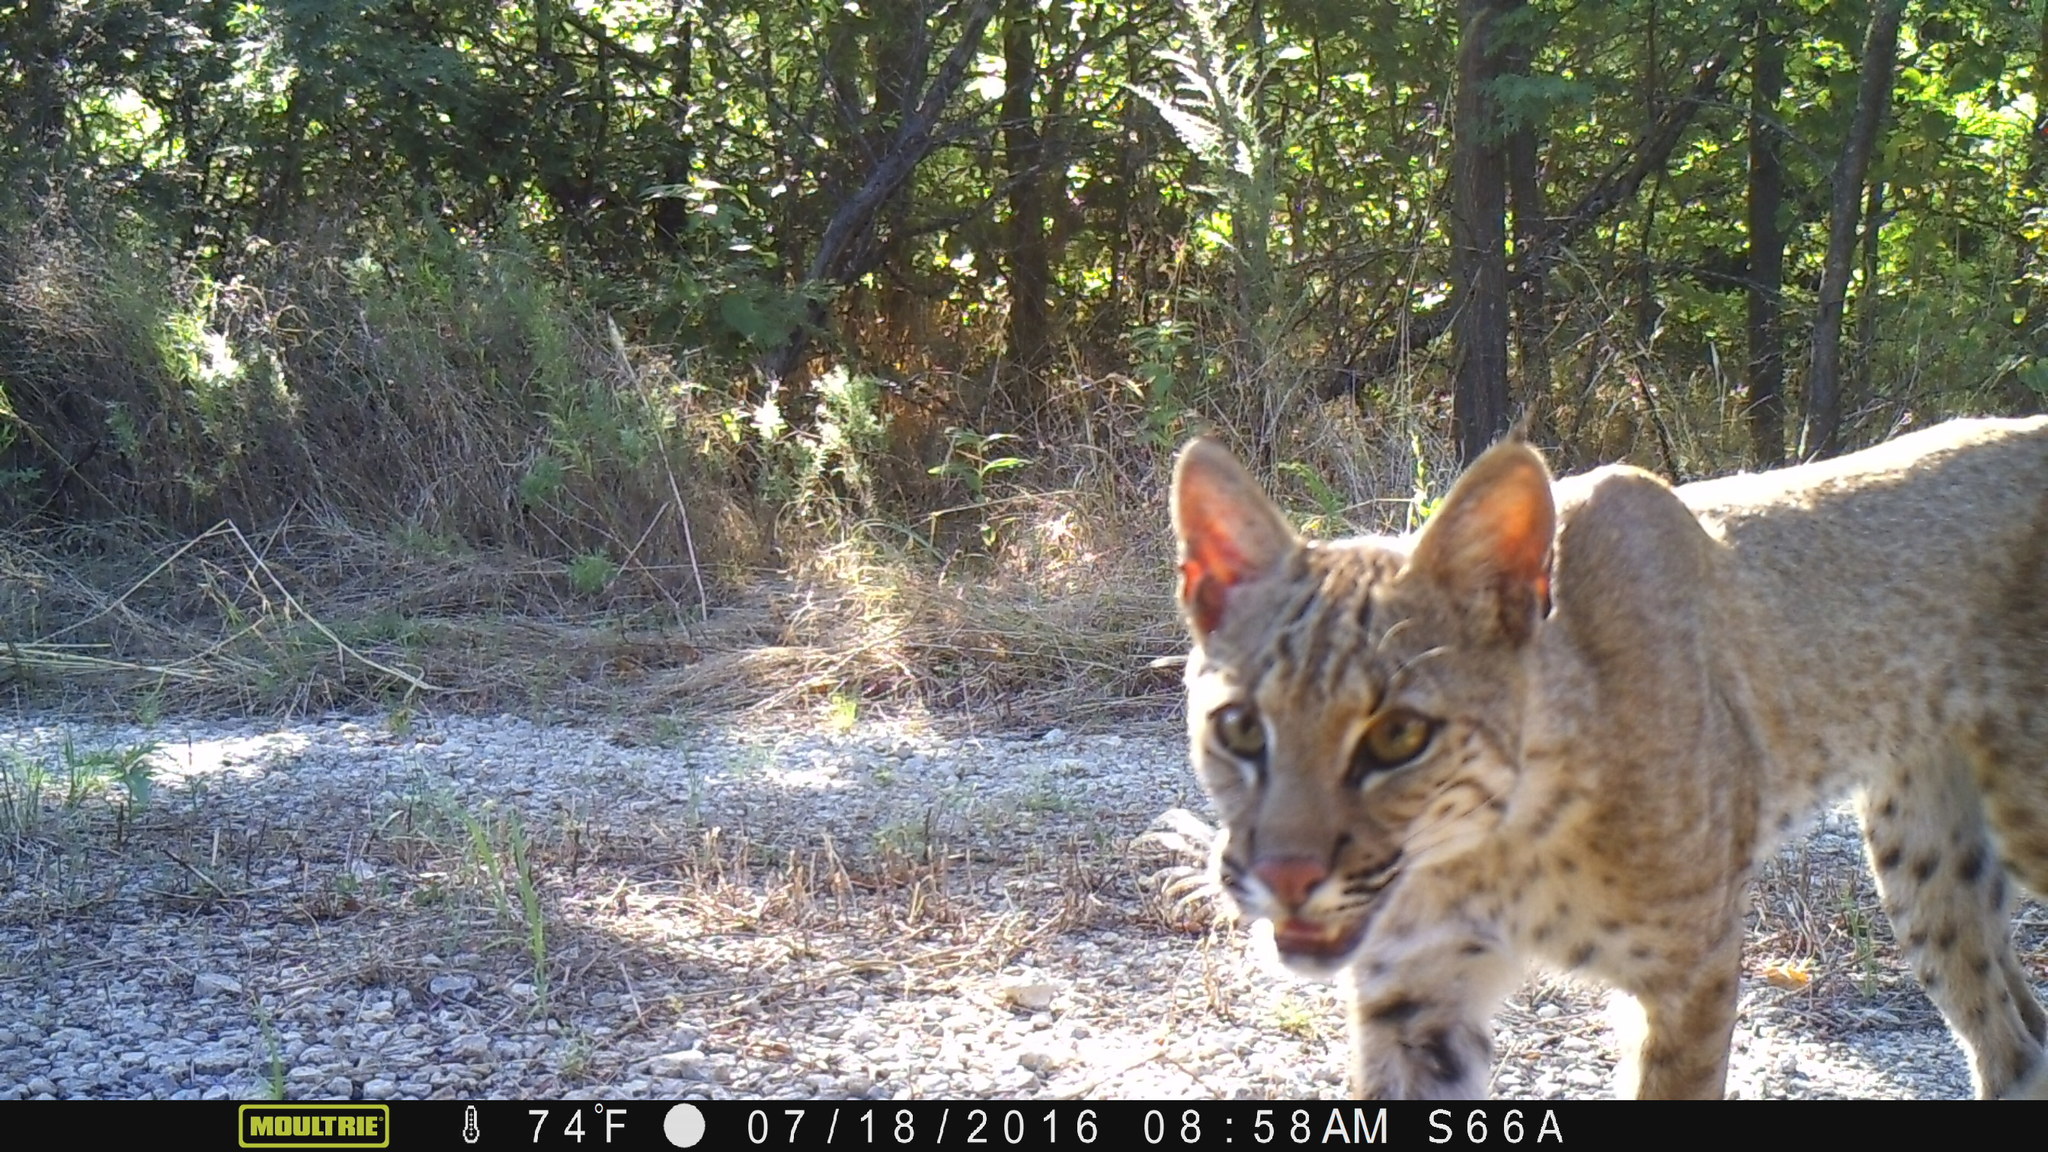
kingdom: Animalia
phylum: Chordata
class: Mammalia
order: Carnivora
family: Felidae
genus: Lynx
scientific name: Lynx rufus
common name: Bobcat
